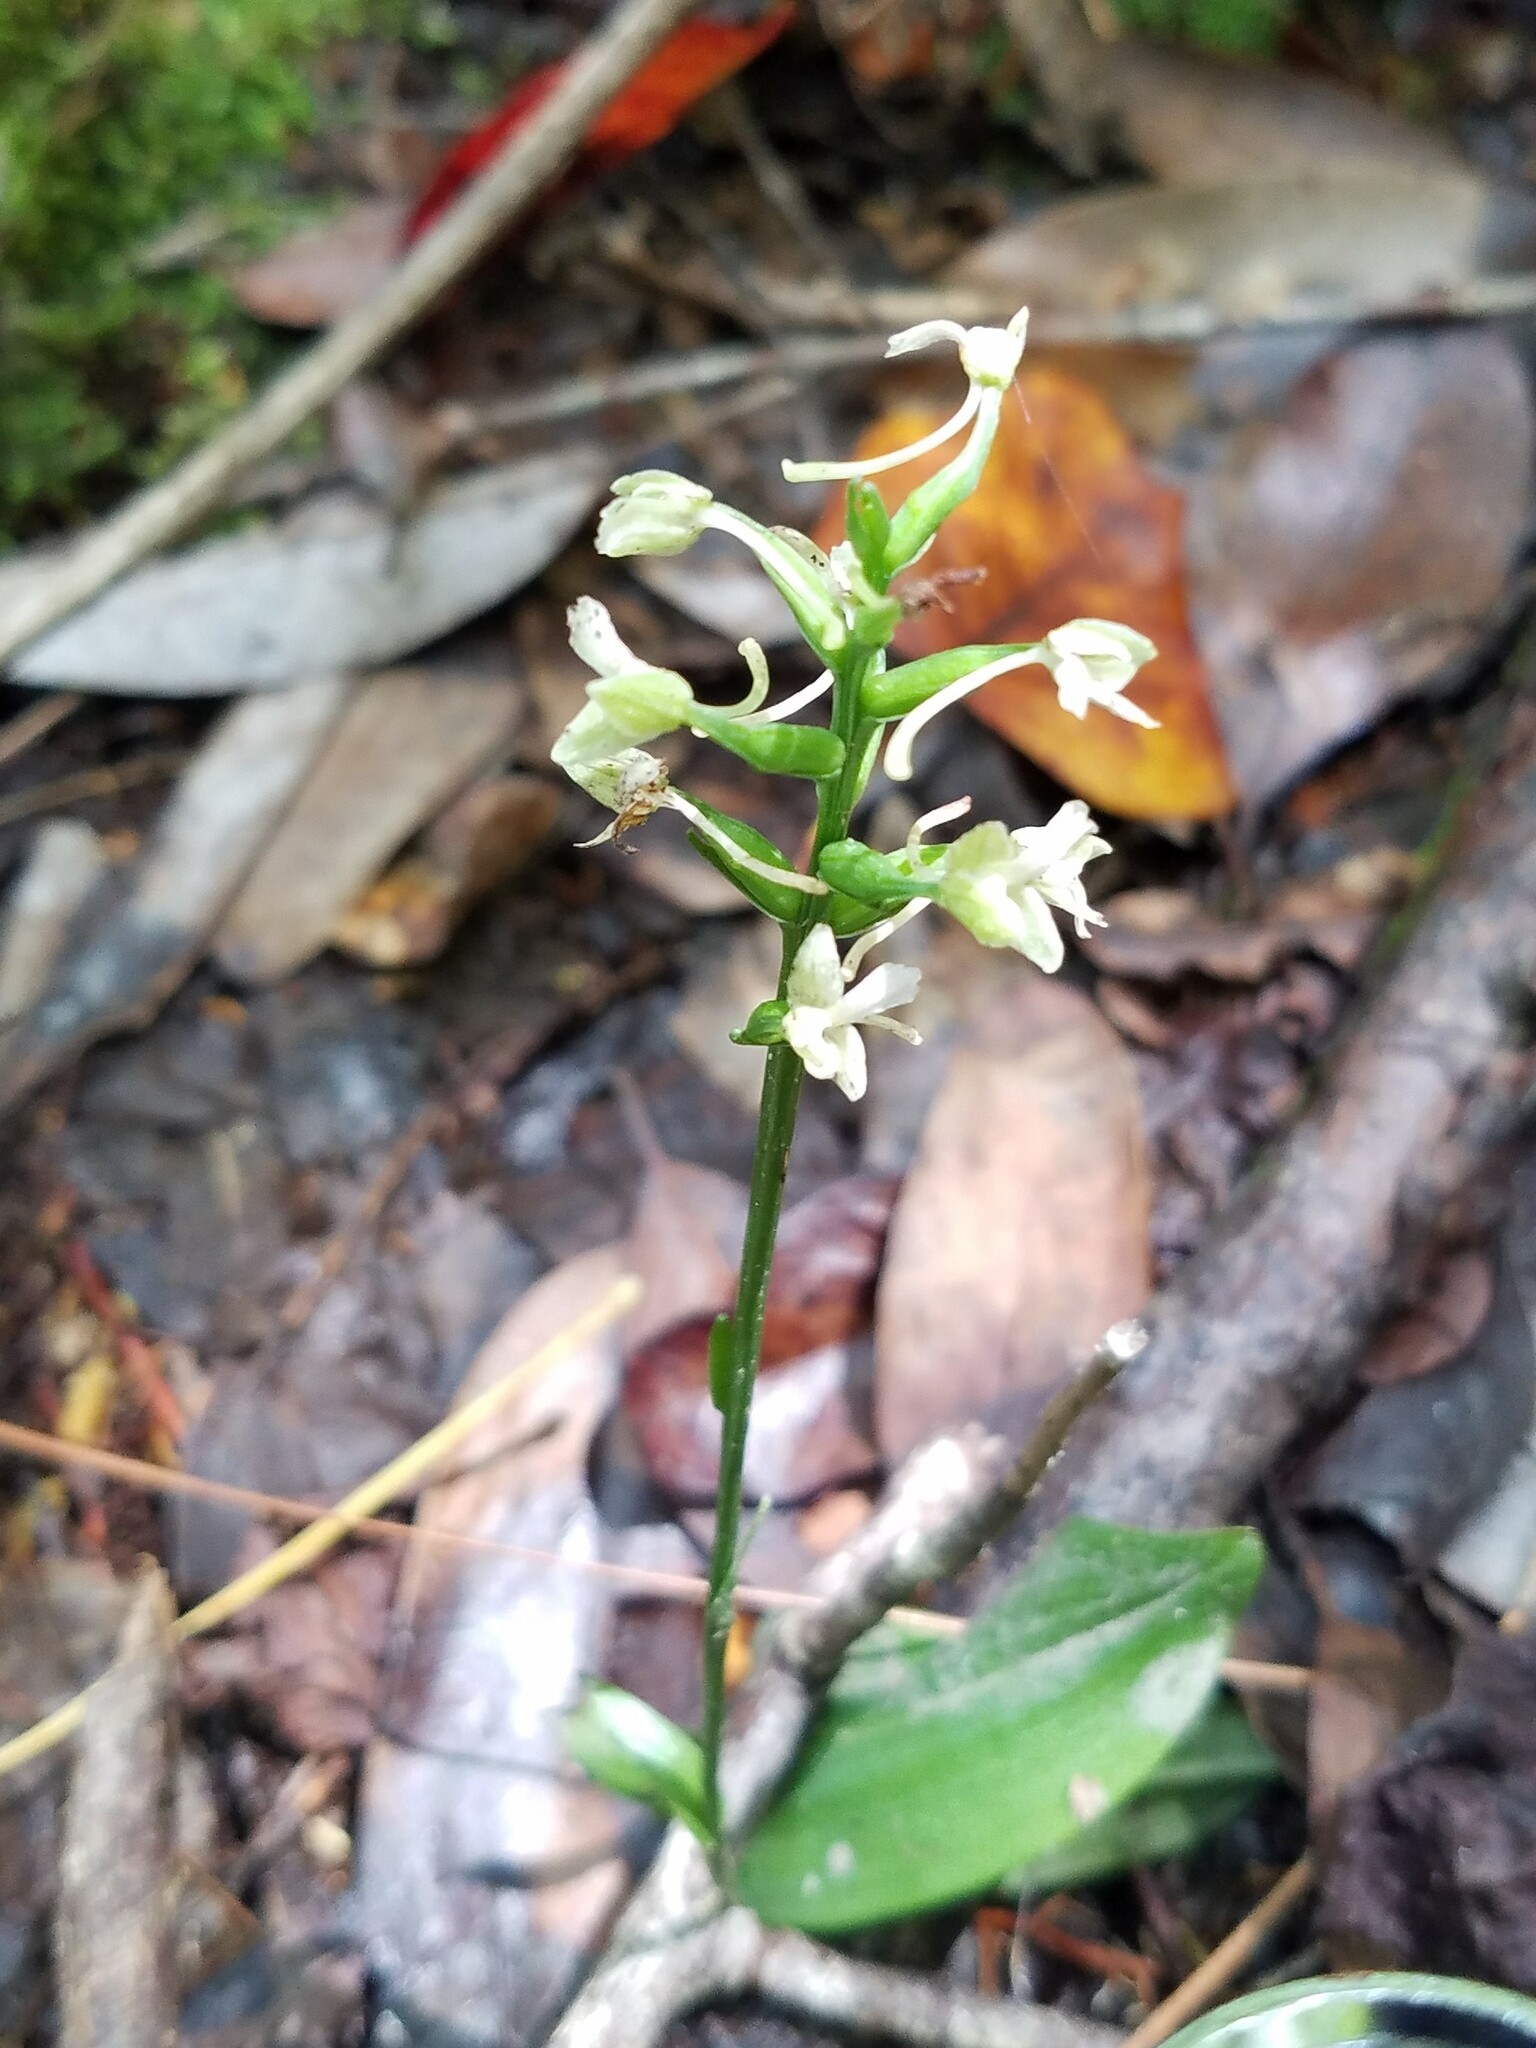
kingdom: Plantae
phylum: Tracheophyta
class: Liliopsida
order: Asparagales
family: Orchidaceae
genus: Platanthera
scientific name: Platanthera clavellata
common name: Club-spur orchid
